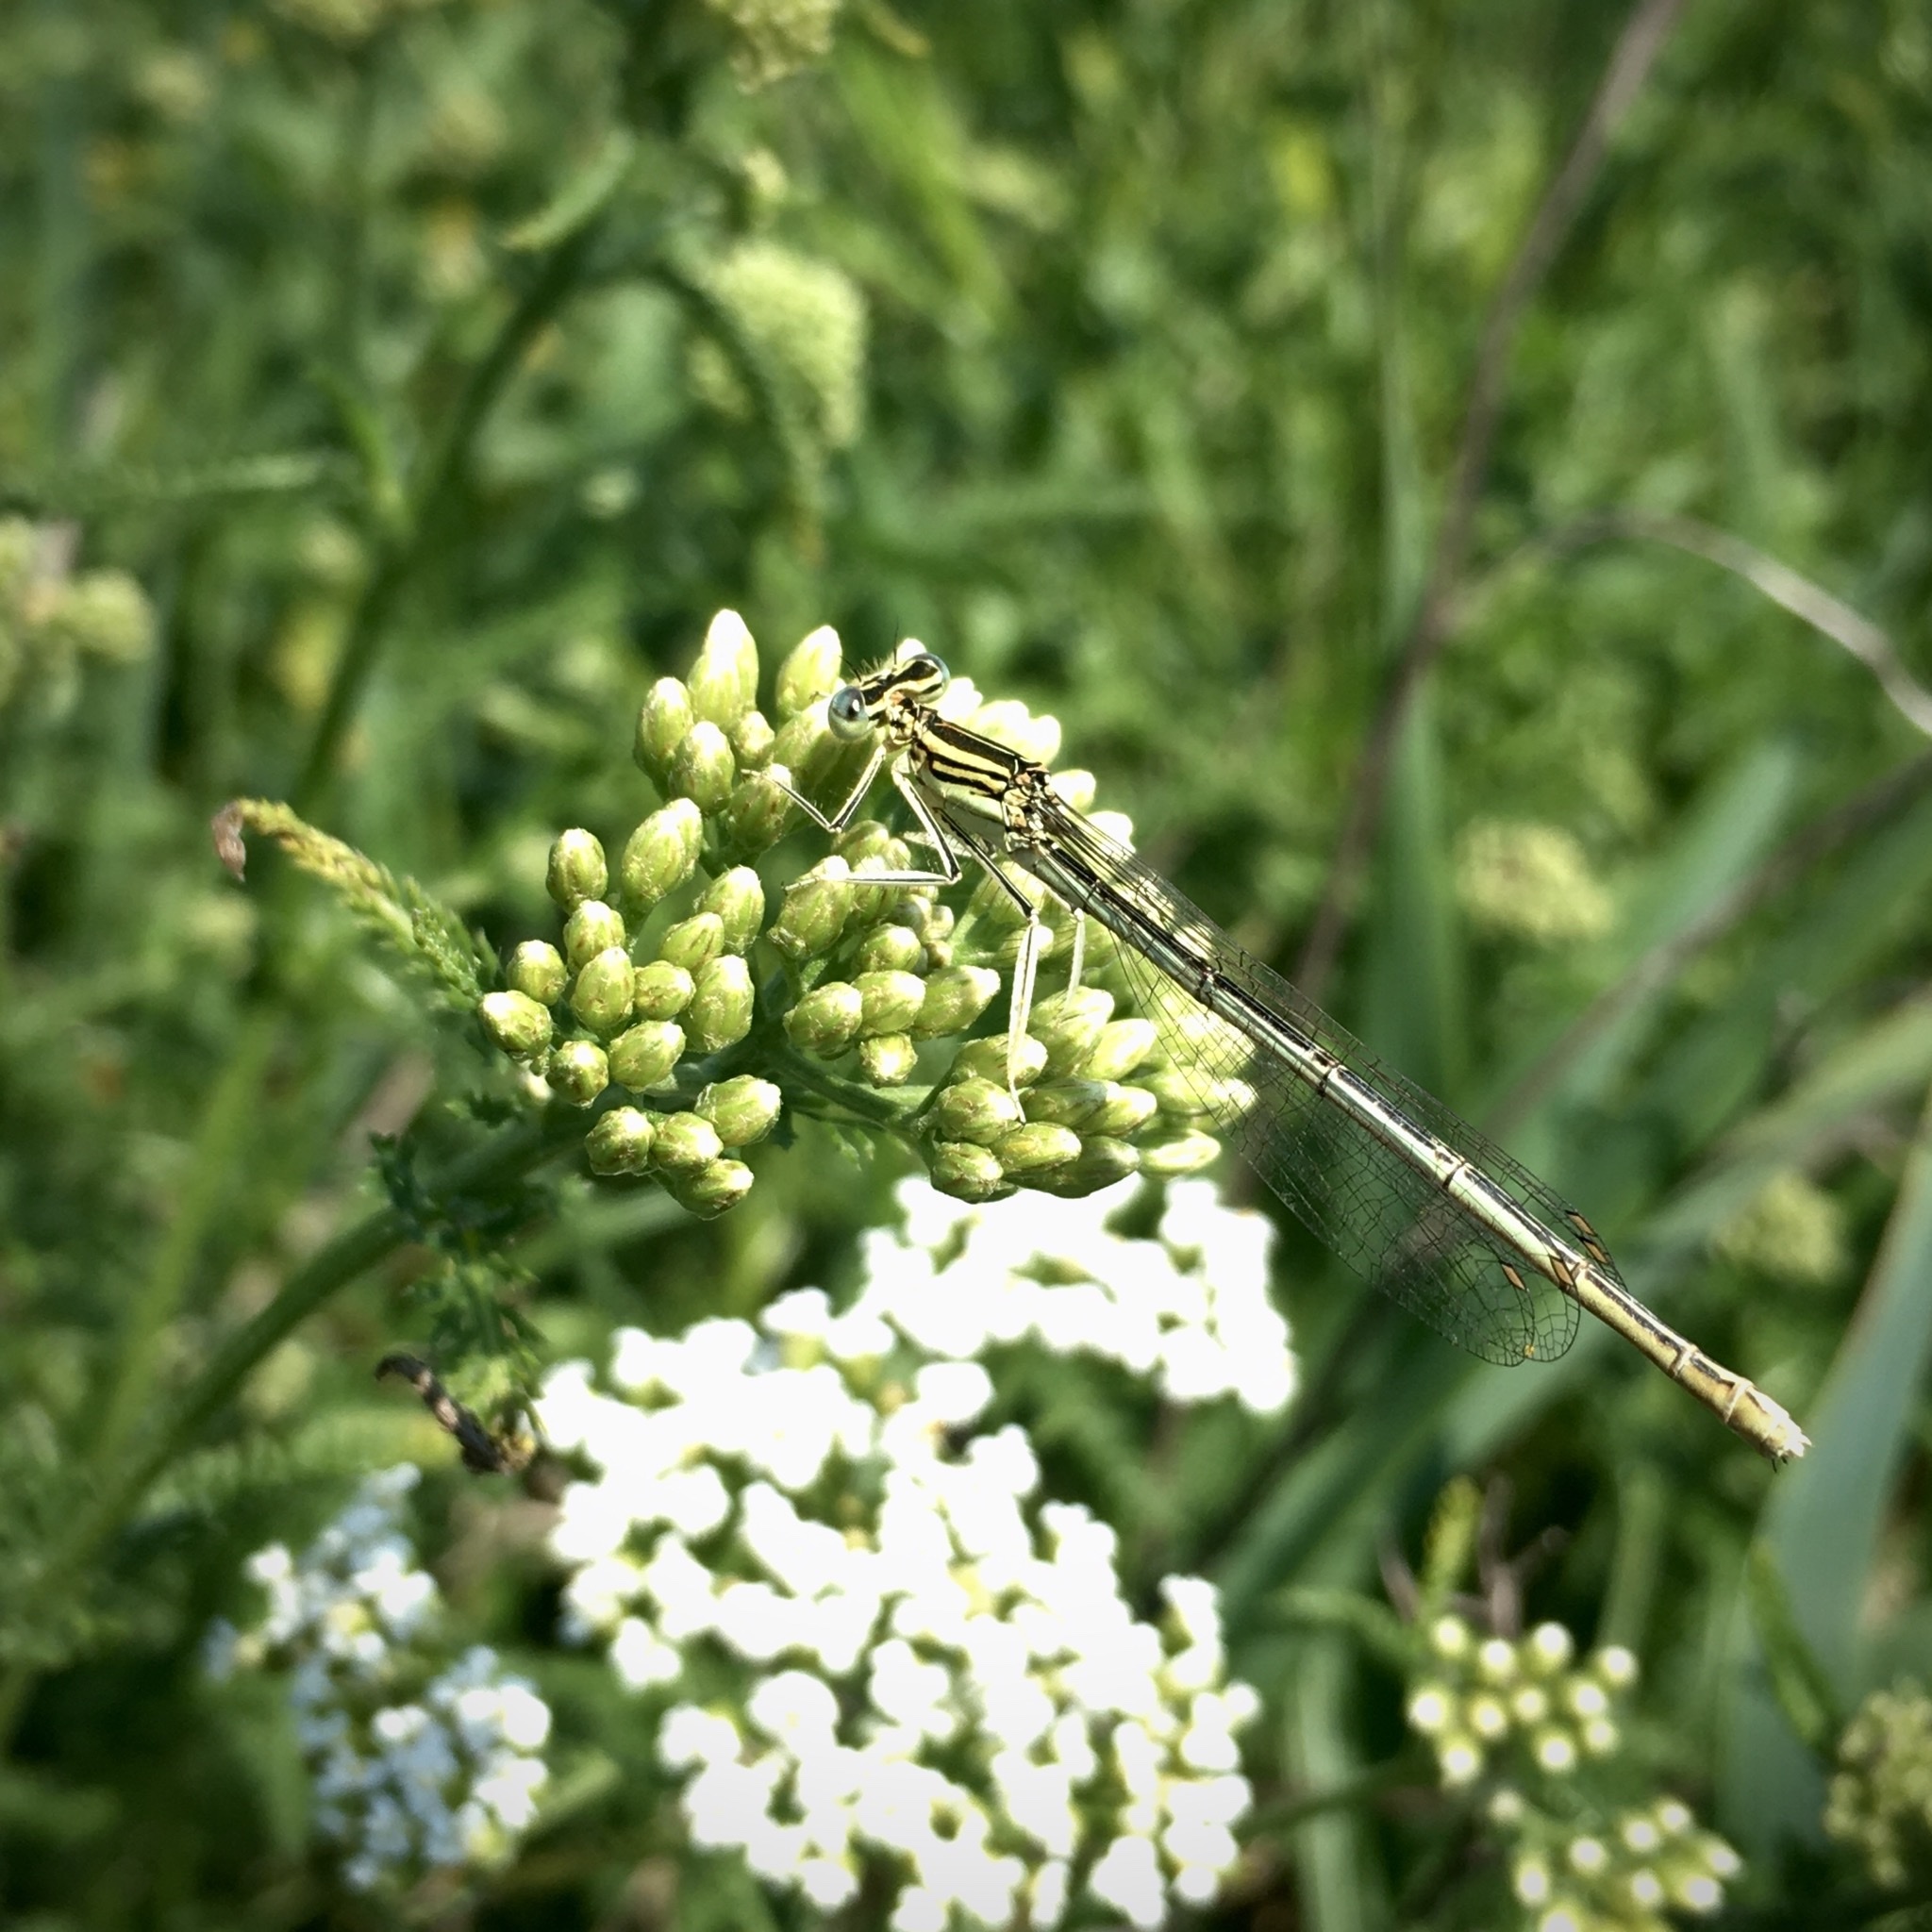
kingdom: Animalia
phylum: Arthropoda
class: Insecta
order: Odonata
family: Platycnemididae
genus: Platycnemis
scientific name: Platycnemis pennipes
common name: White-legged damselfly
